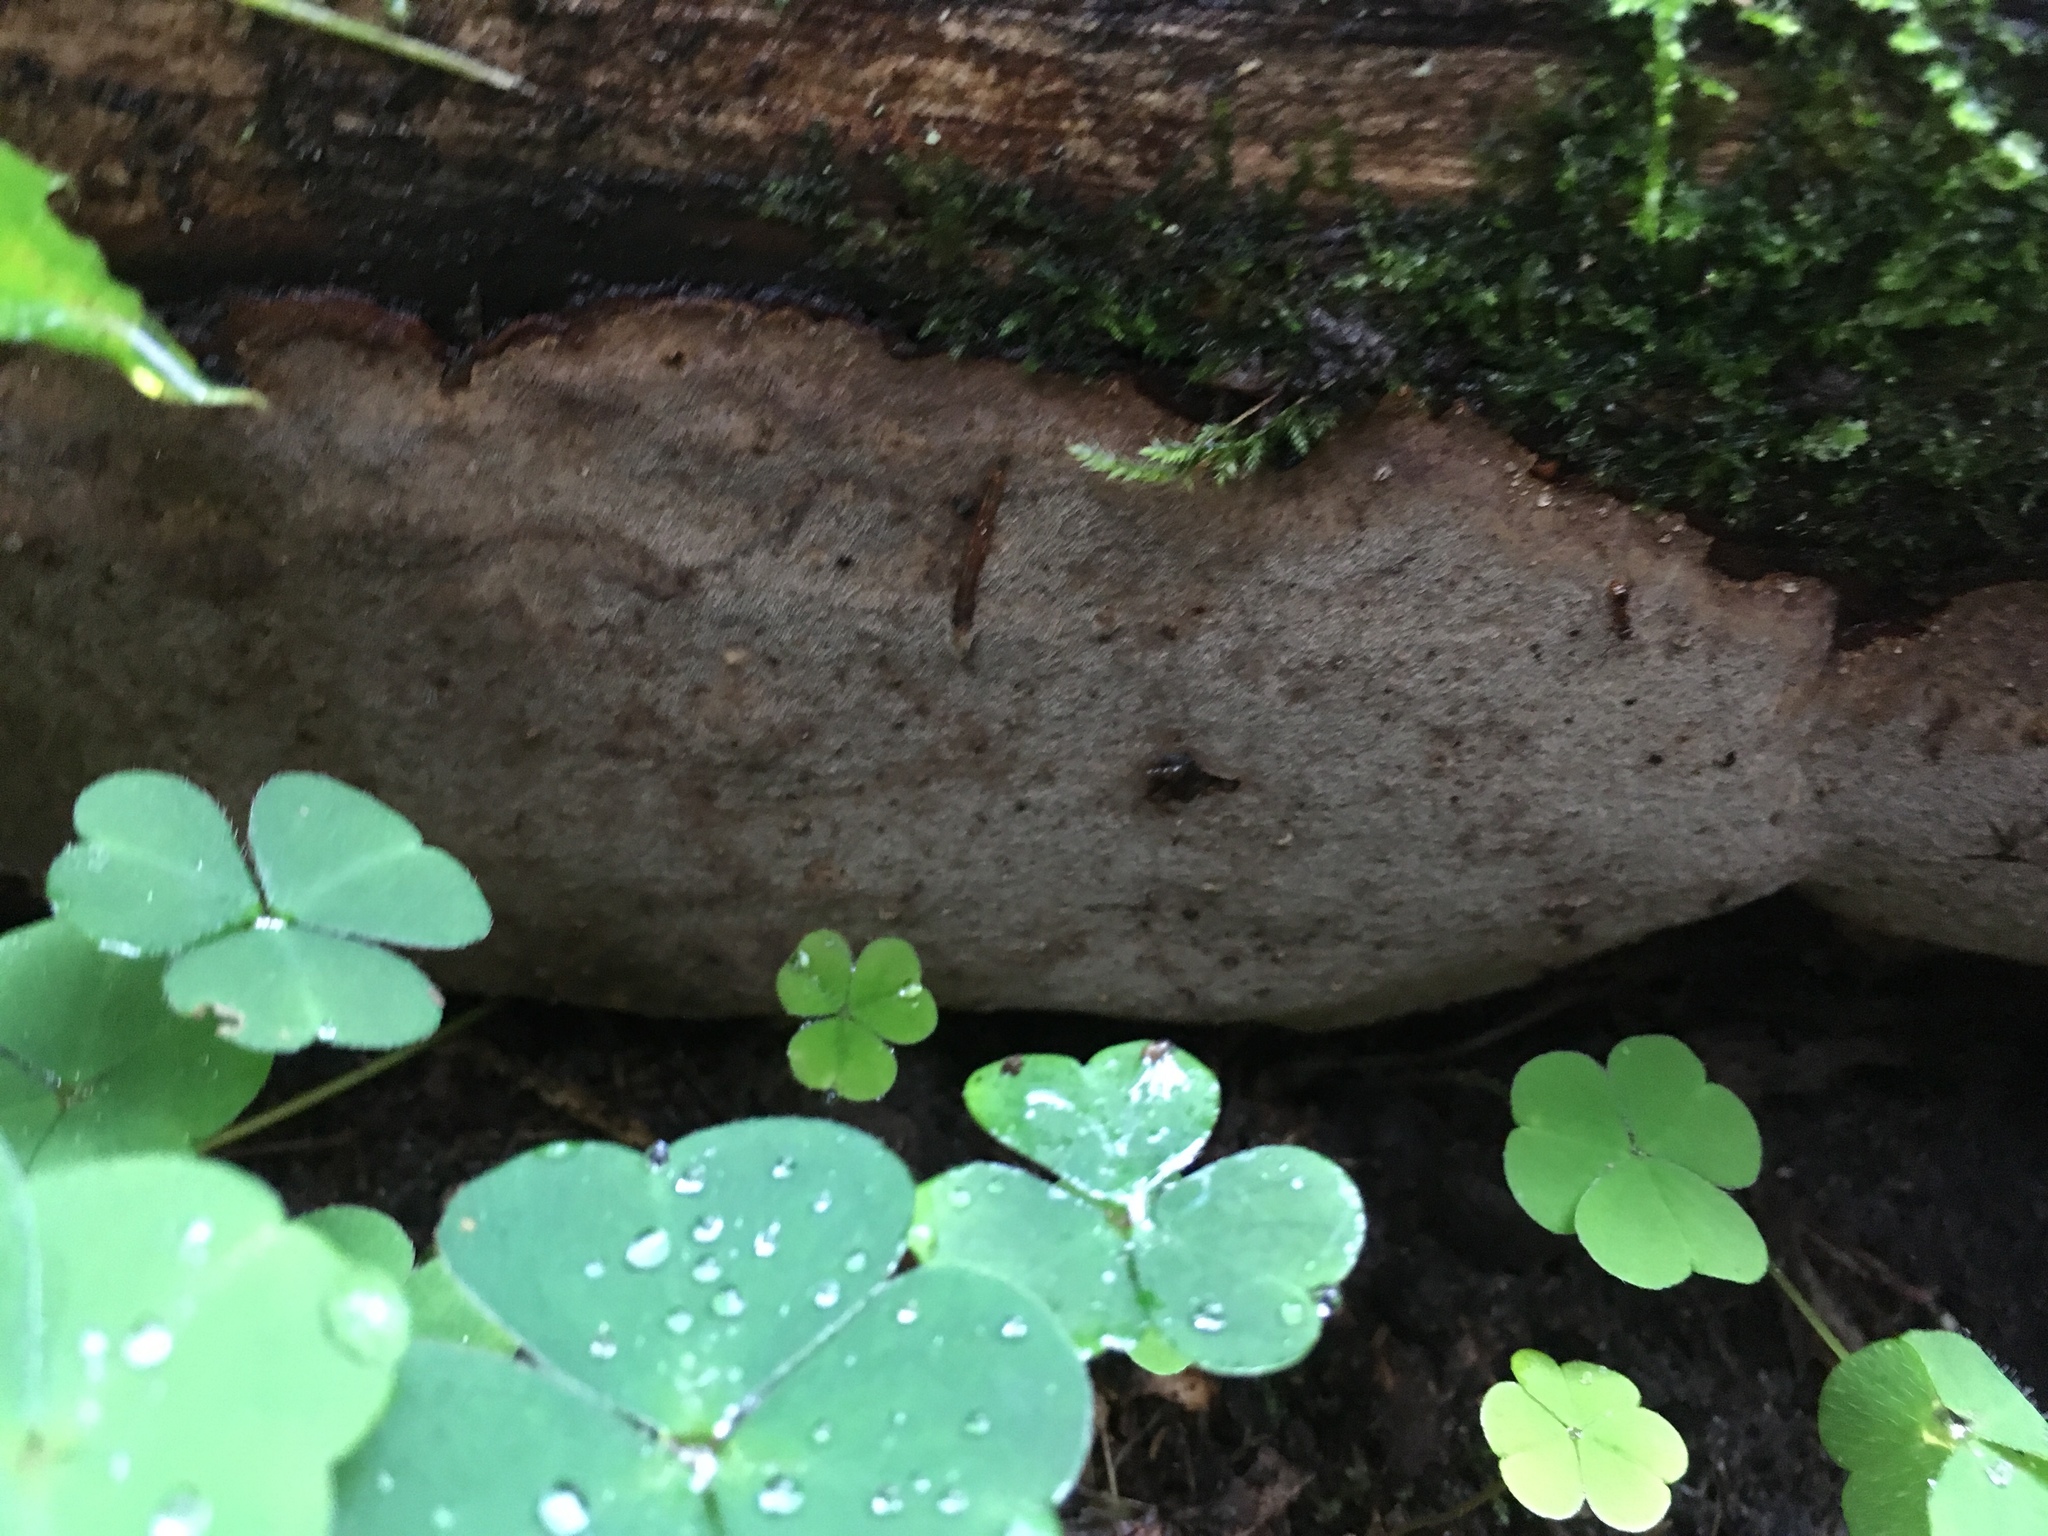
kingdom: Fungi
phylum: Basidiomycota
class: Agaricomycetes
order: Hymenochaetales
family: Hymenochaetaceae
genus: Phellinus
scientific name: Phellinus laevigatus
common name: Smooth bristle bracket
